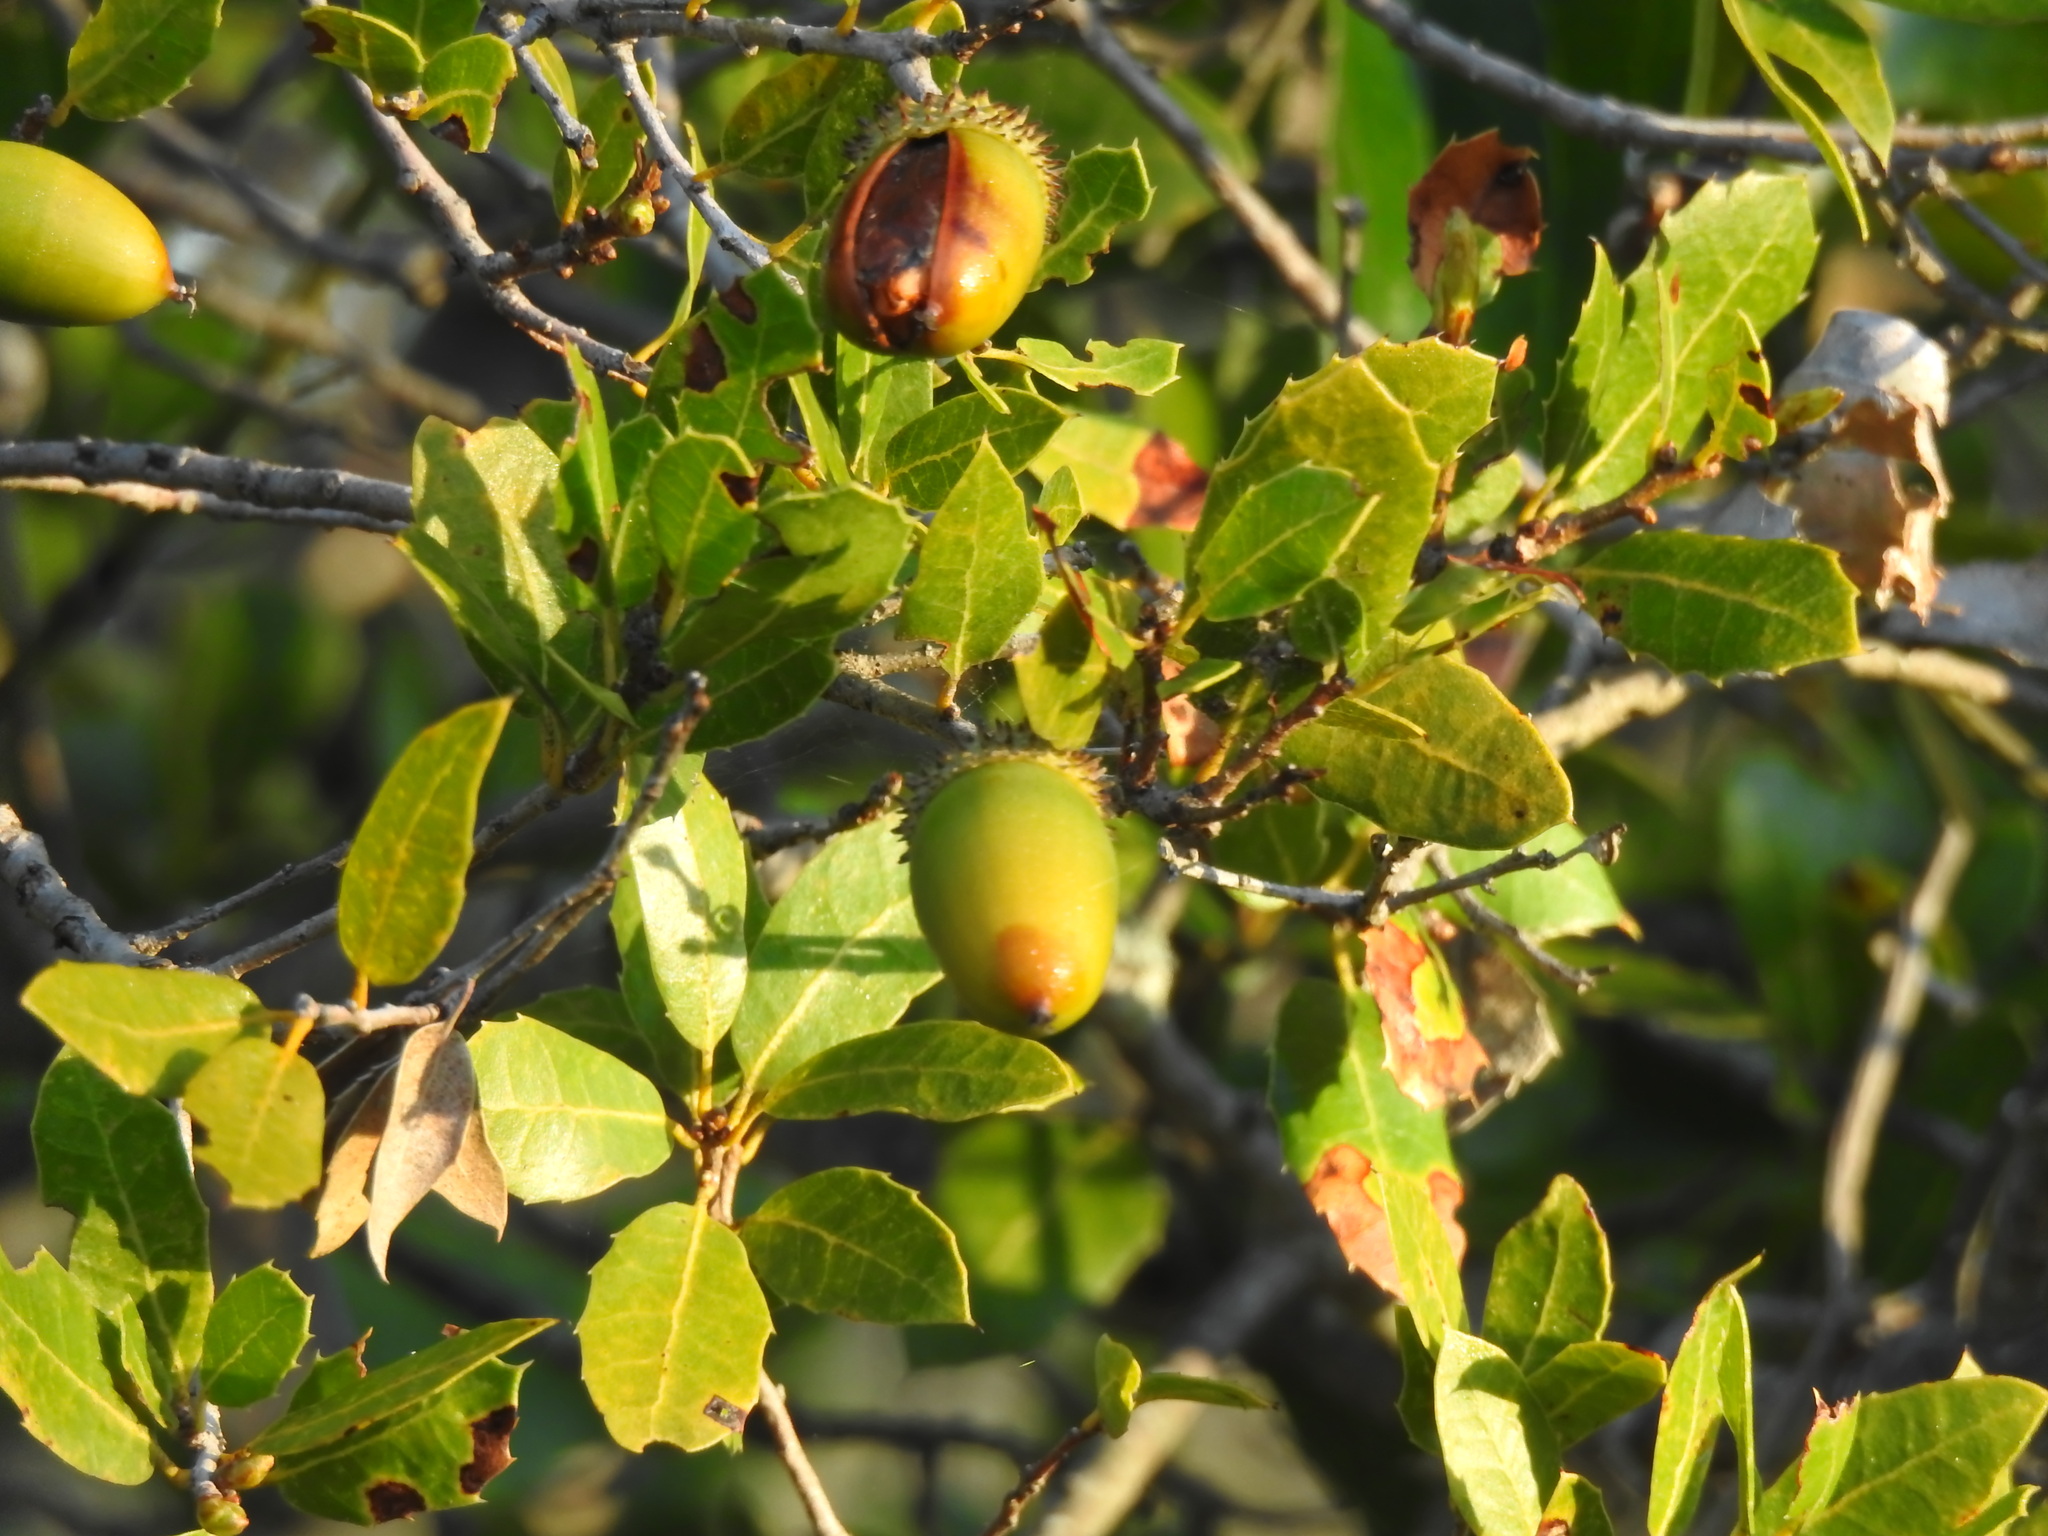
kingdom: Plantae
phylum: Tracheophyta
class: Magnoliopsida
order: Fagales
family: Fagaceae
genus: Quercus
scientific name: Quercus coccifera
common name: Kermes oak
